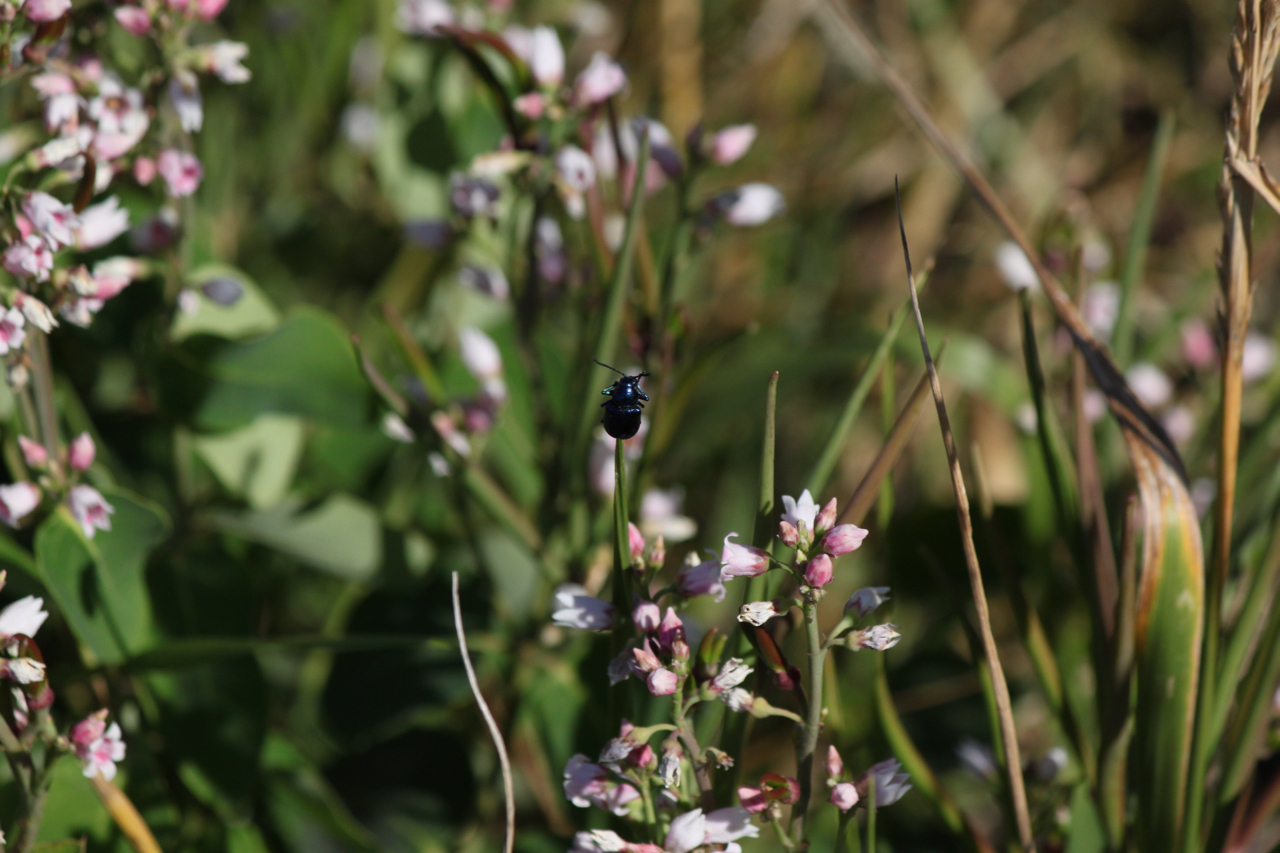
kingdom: Animalia
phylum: Arthropoda
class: Insecta
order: Coleoptera
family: Chrysomelidae
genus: Chrysochus
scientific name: Chrysochus cobaltinus
